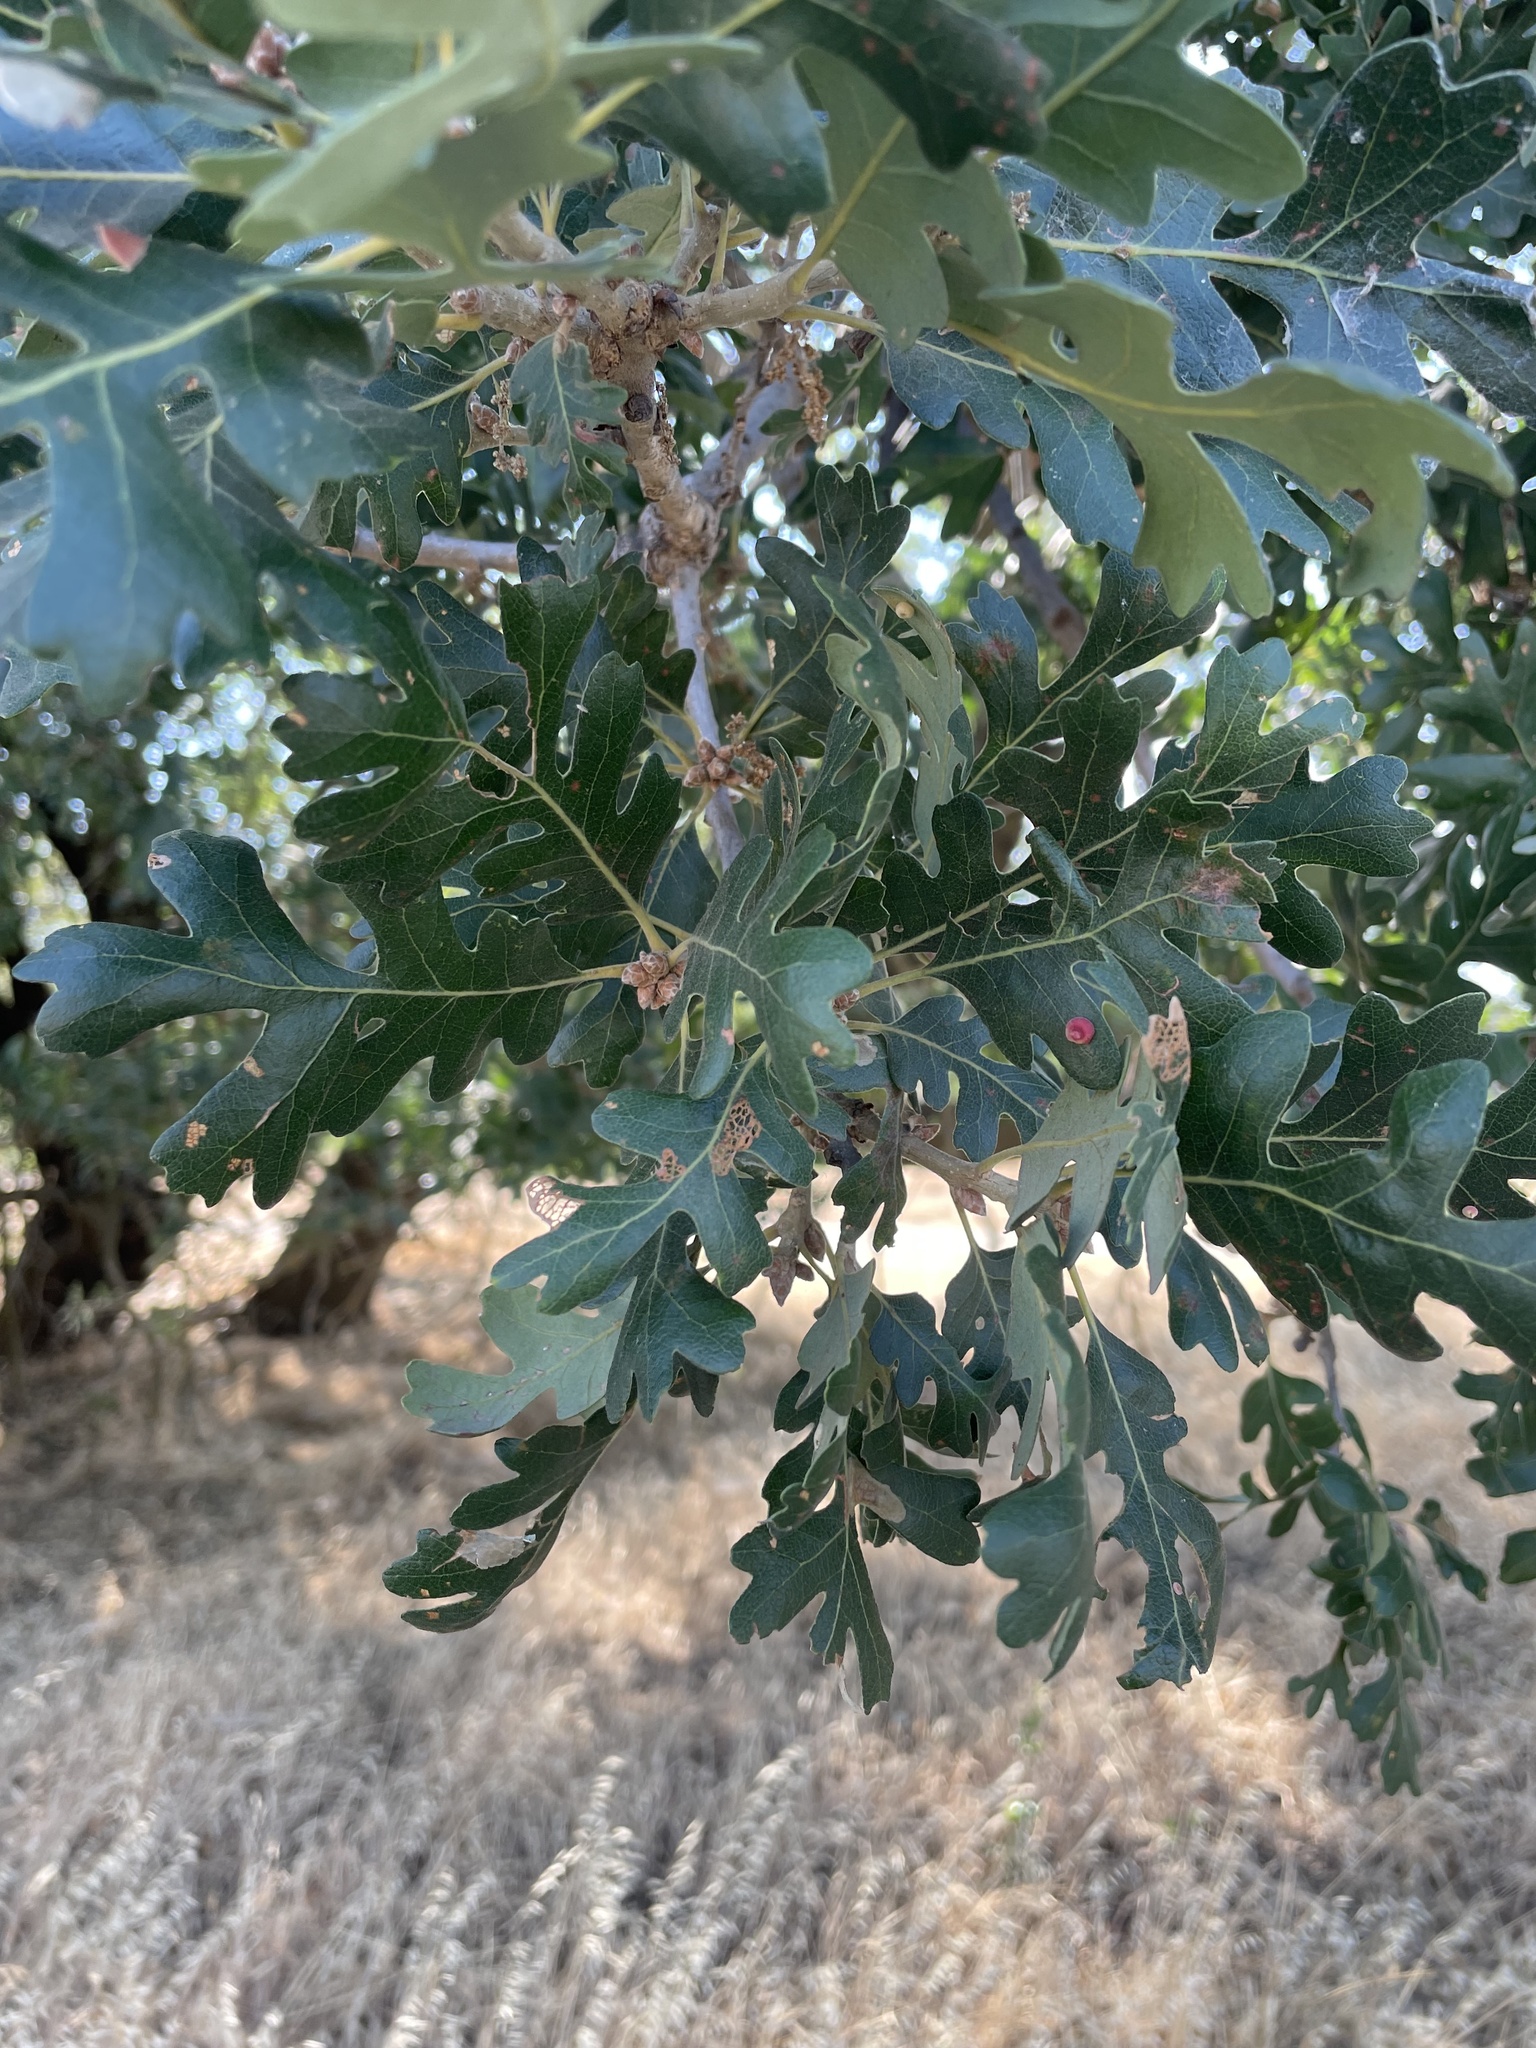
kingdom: Plantae
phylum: Tracheophyta
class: Magnoliopsida
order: Fagales
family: Fagaceae
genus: Quercus
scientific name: Quercus lobata
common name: Valley oak
